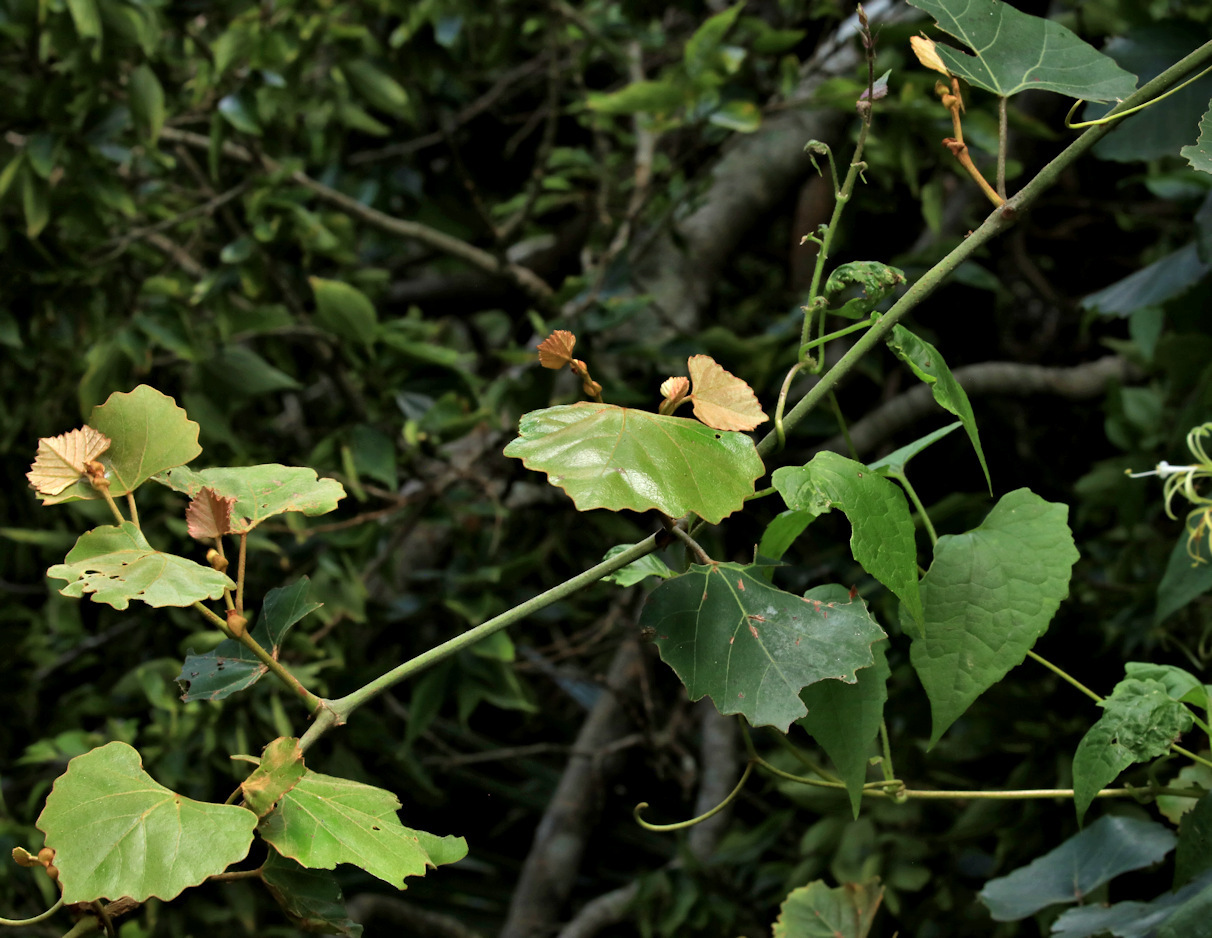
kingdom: Plantae
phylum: Tracheophyta
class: Magnoliopsida
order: Vitales
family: Vitaceae
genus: Rhoicissus
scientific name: Rhoicissus tomentosa
